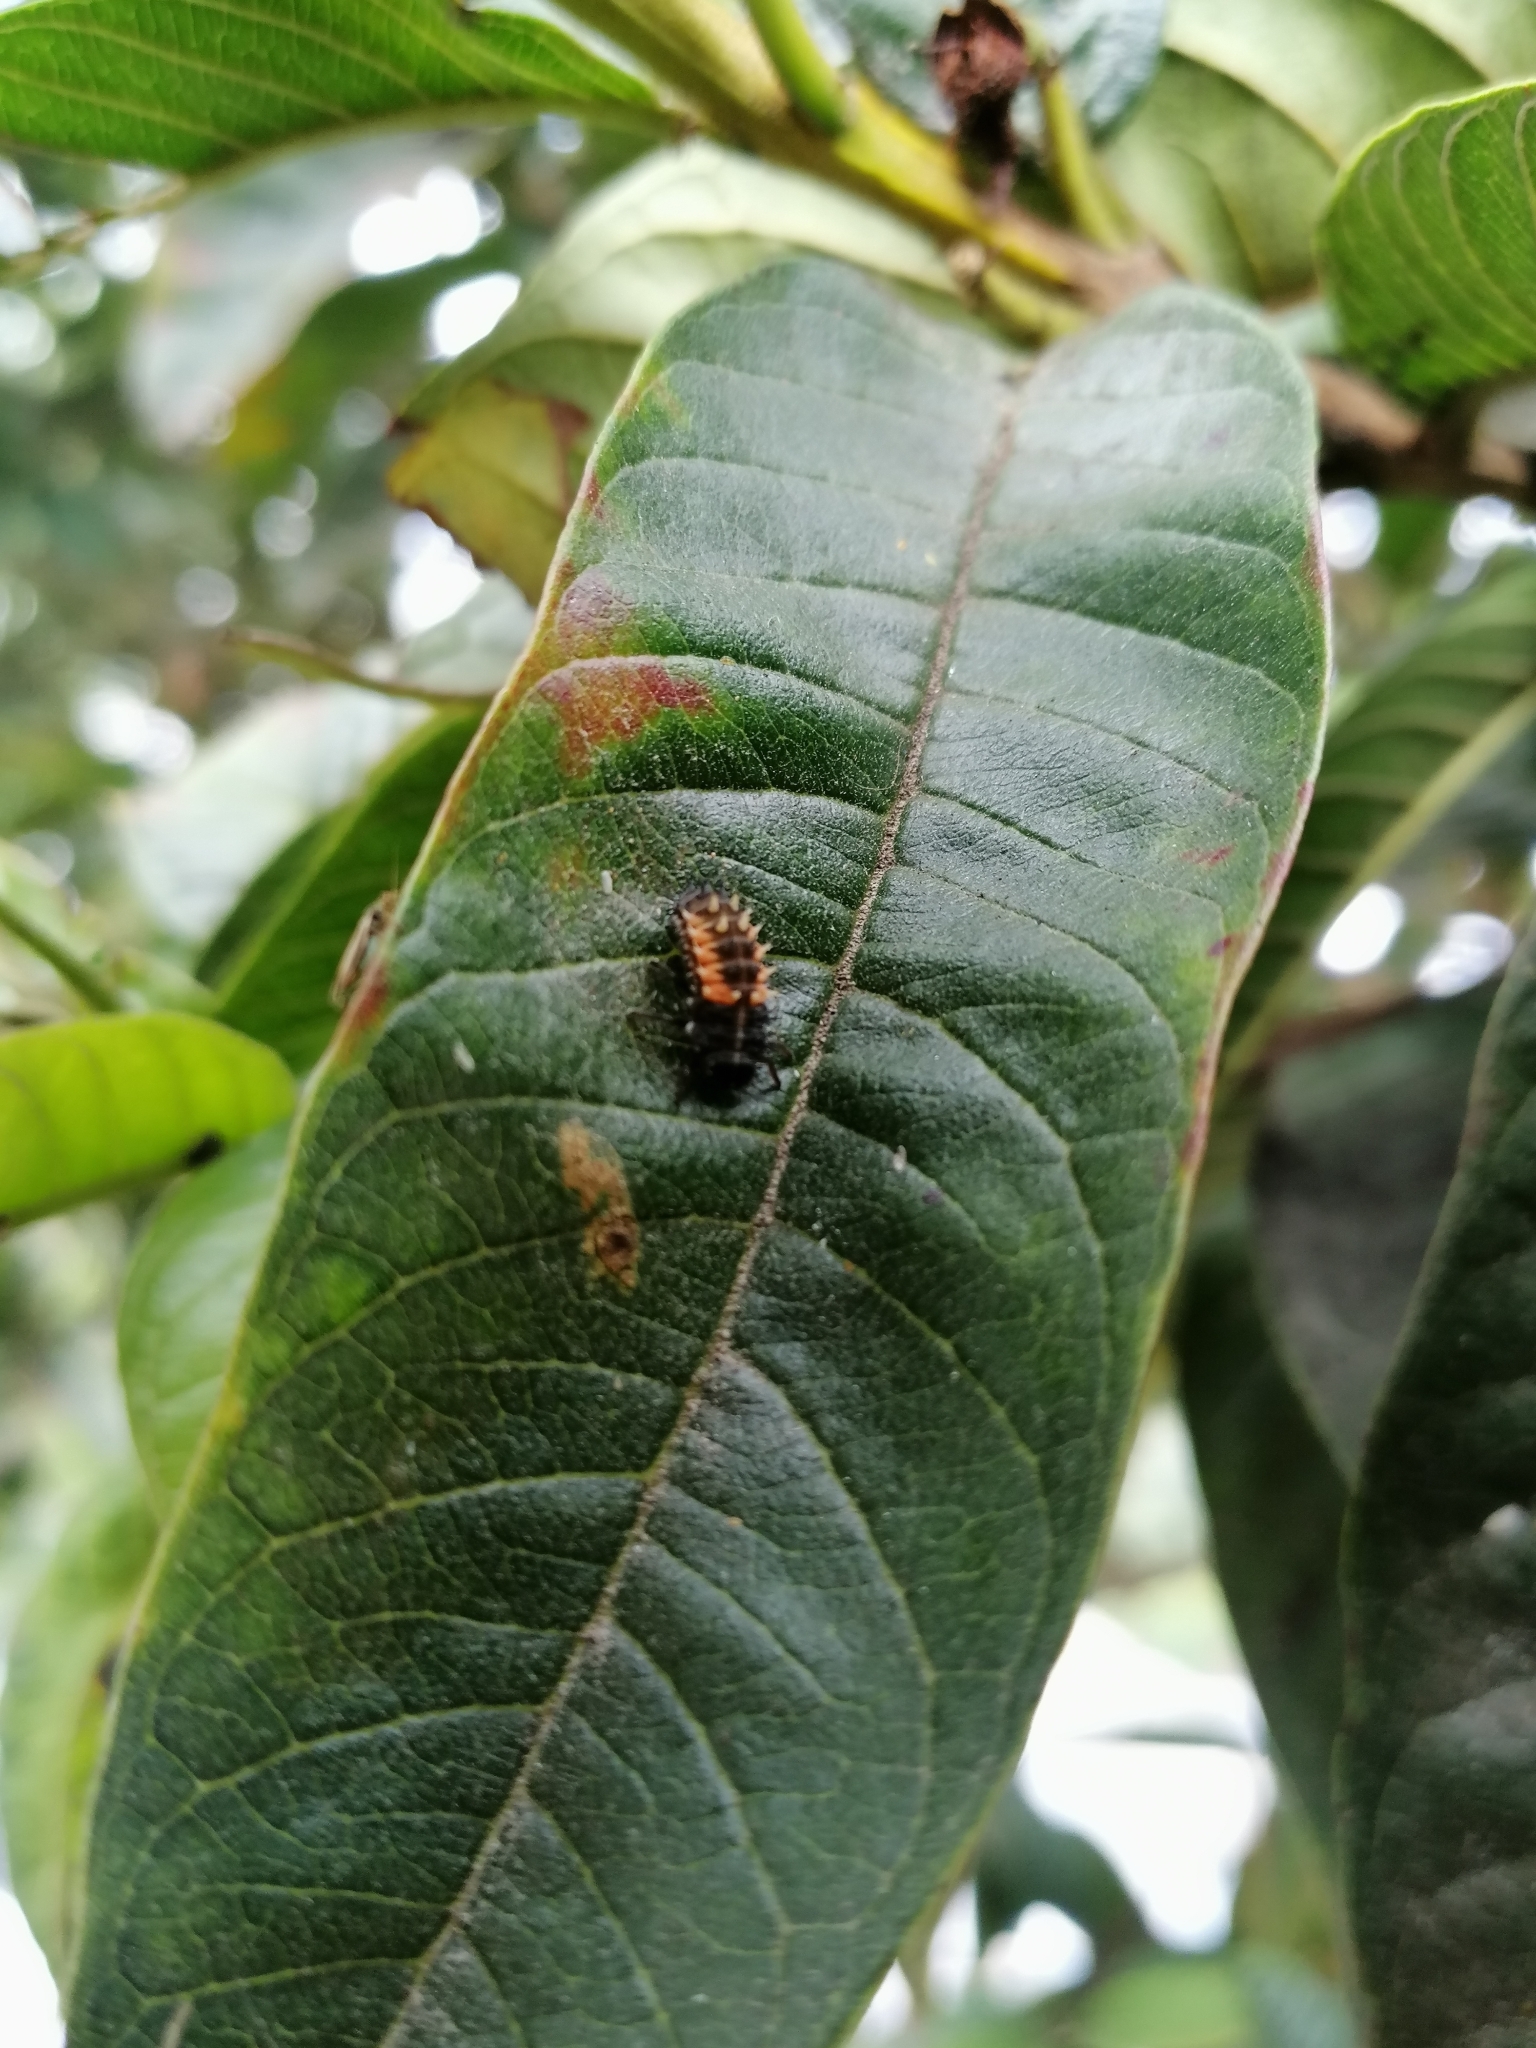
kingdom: Animalia
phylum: Arthropoda
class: Insecta
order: Coleoptera
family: Coccinellidae
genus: Harmonia
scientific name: Harmonia axyridis
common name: Harlequin ladybird
